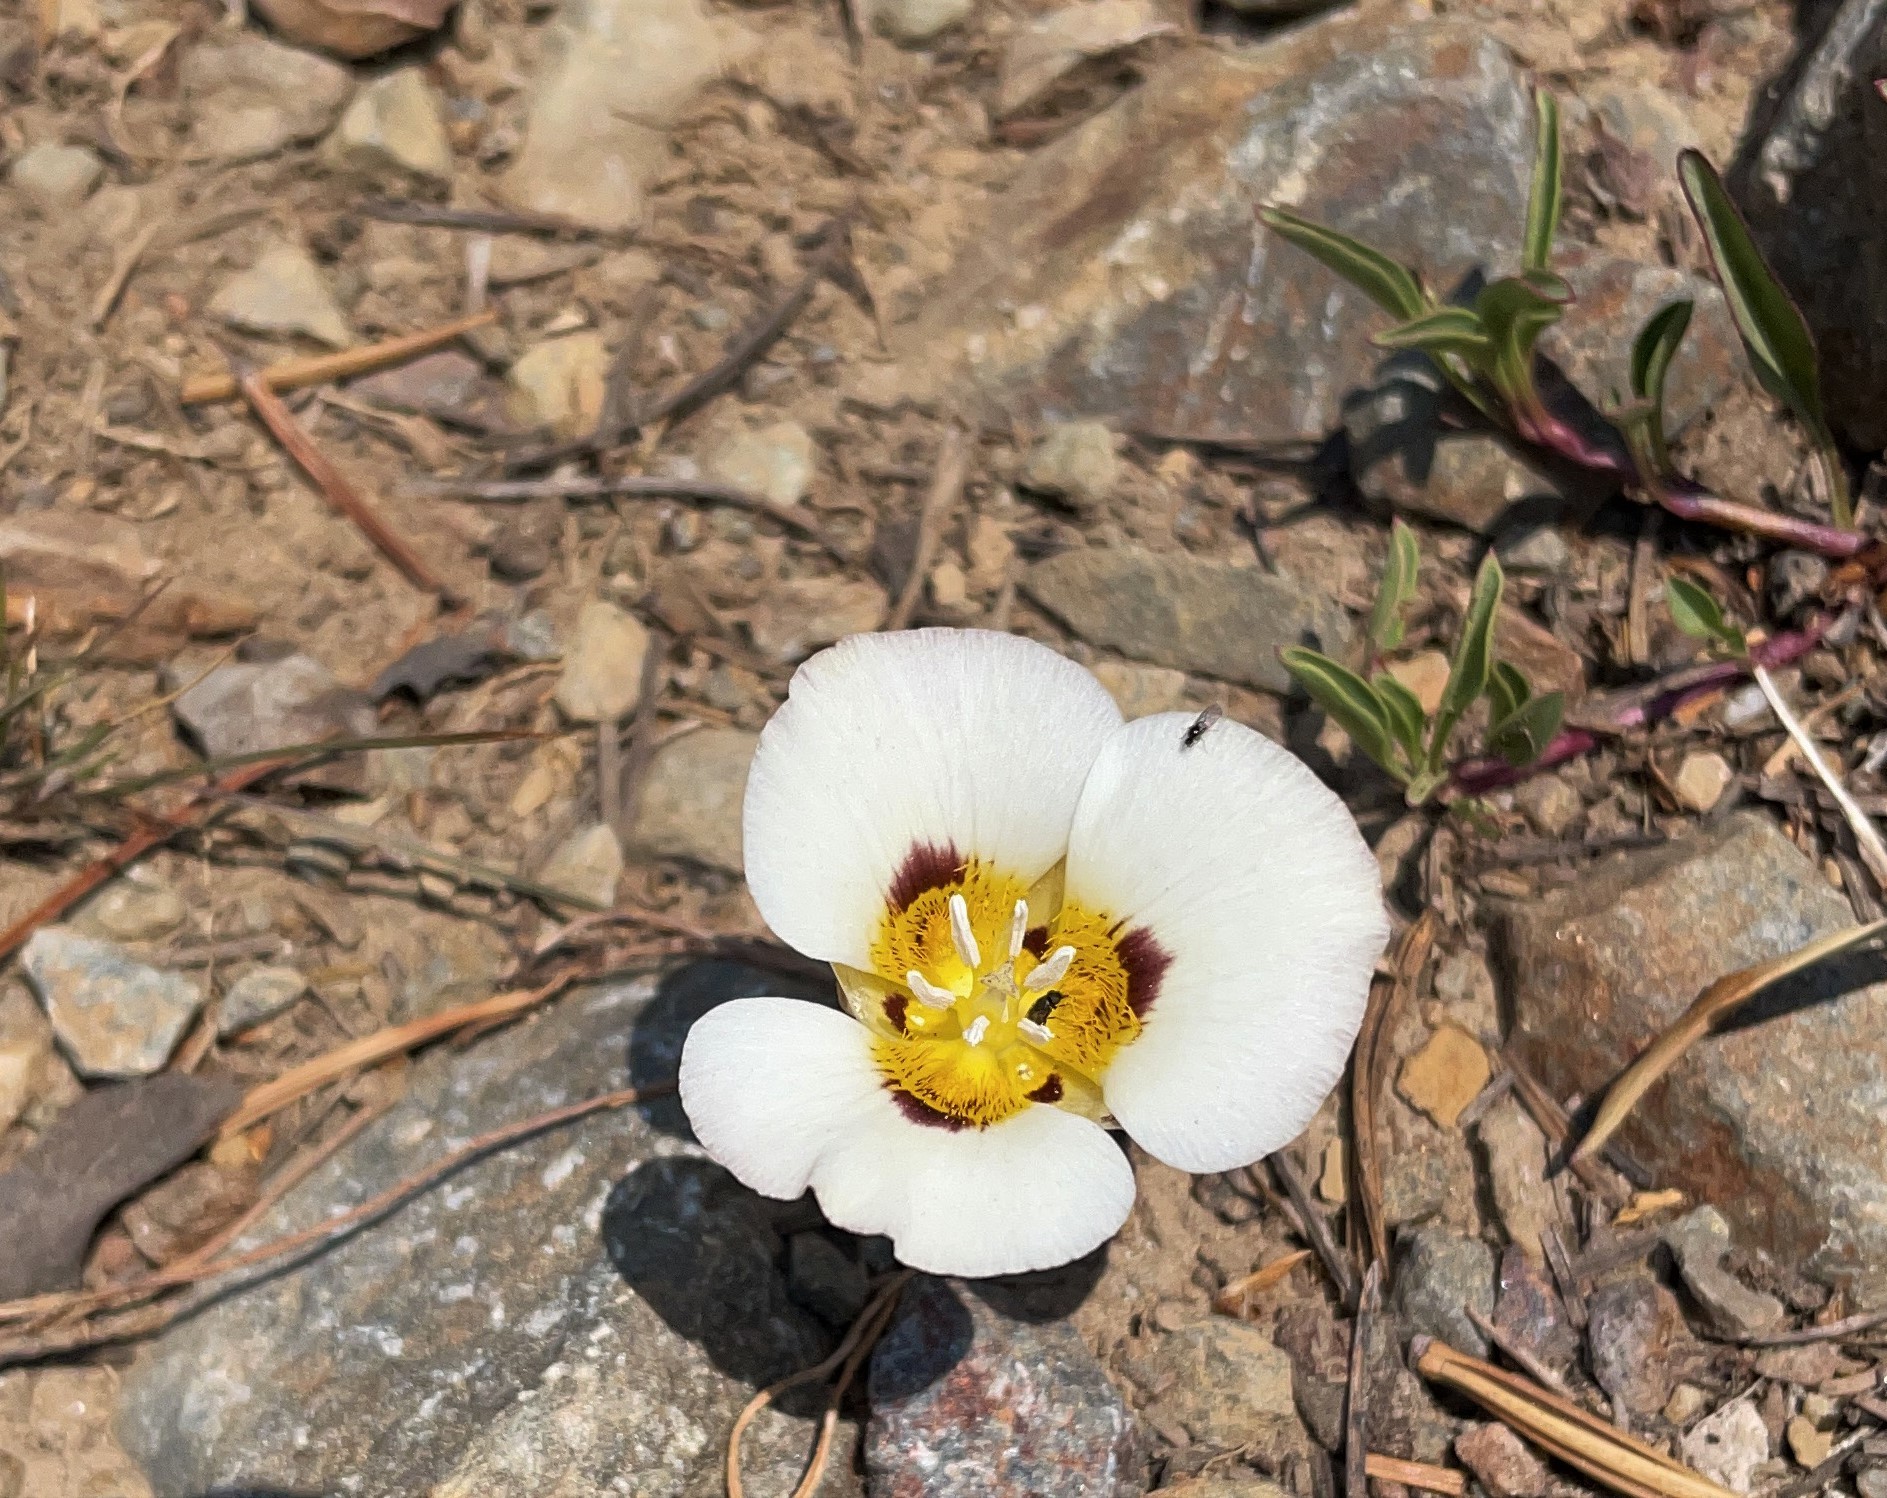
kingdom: Plantae
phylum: Tracheophyta
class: Liliopsida
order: Liliales
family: Liliaceae
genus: Calochortus
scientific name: Calochortus leichtlinii
